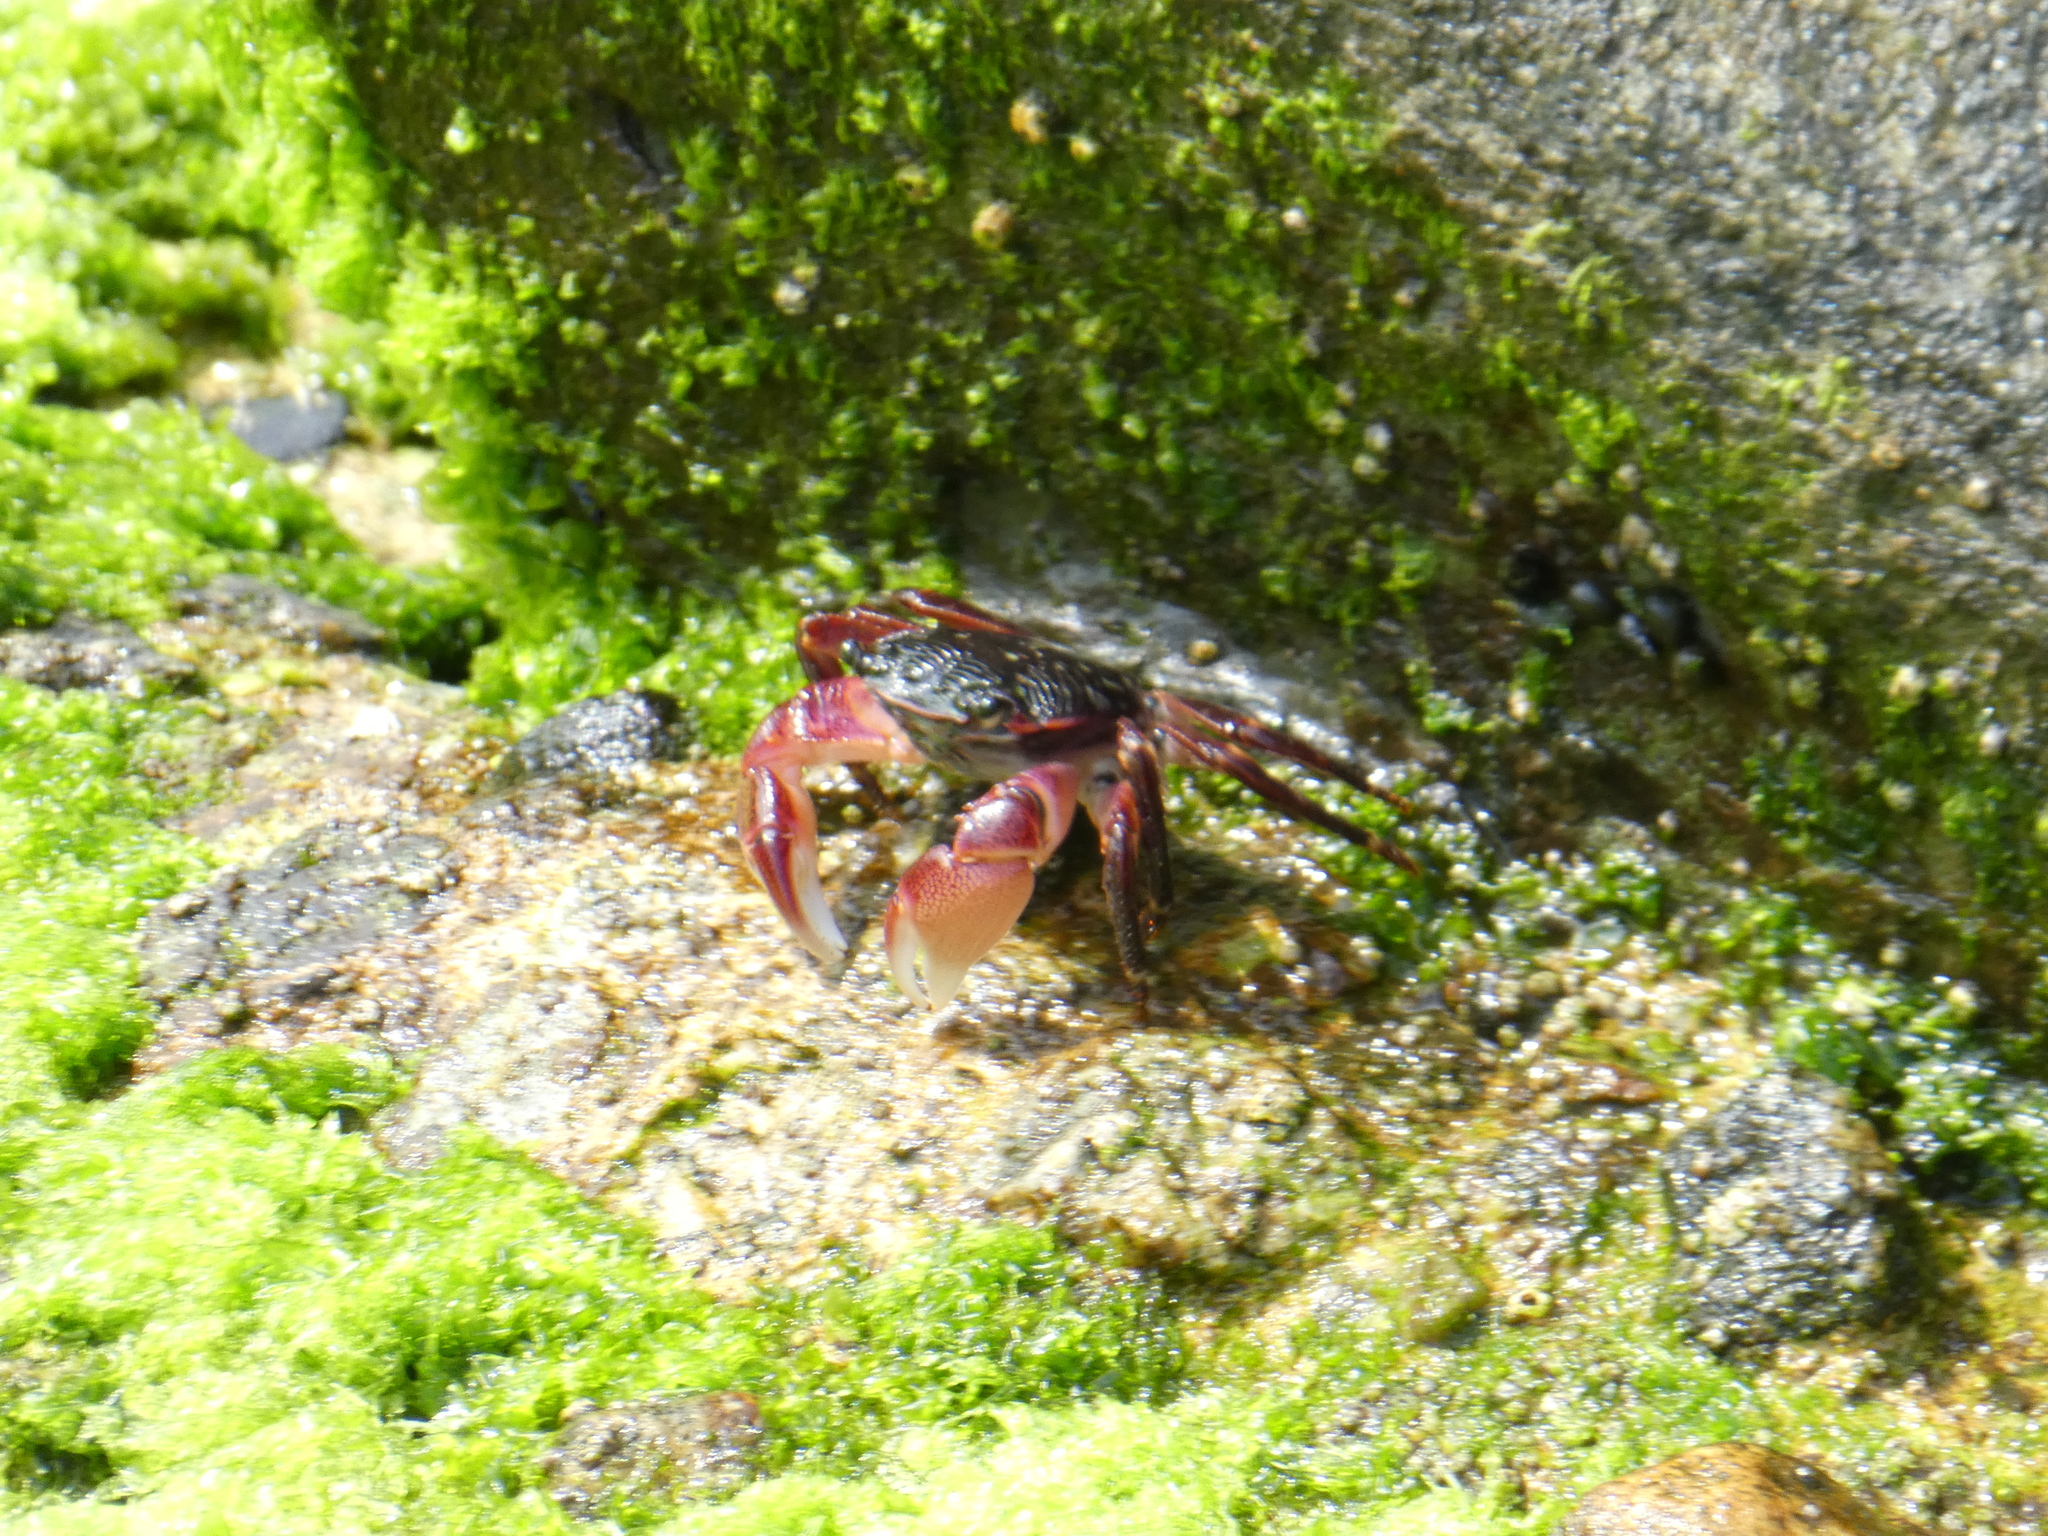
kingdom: Animalia
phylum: Arthropoda
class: Malacostraca
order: Decapoda
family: Grapsidae
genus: Pachygrapsus
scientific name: Pachygrapsus crassipes
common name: Striped shore crab
